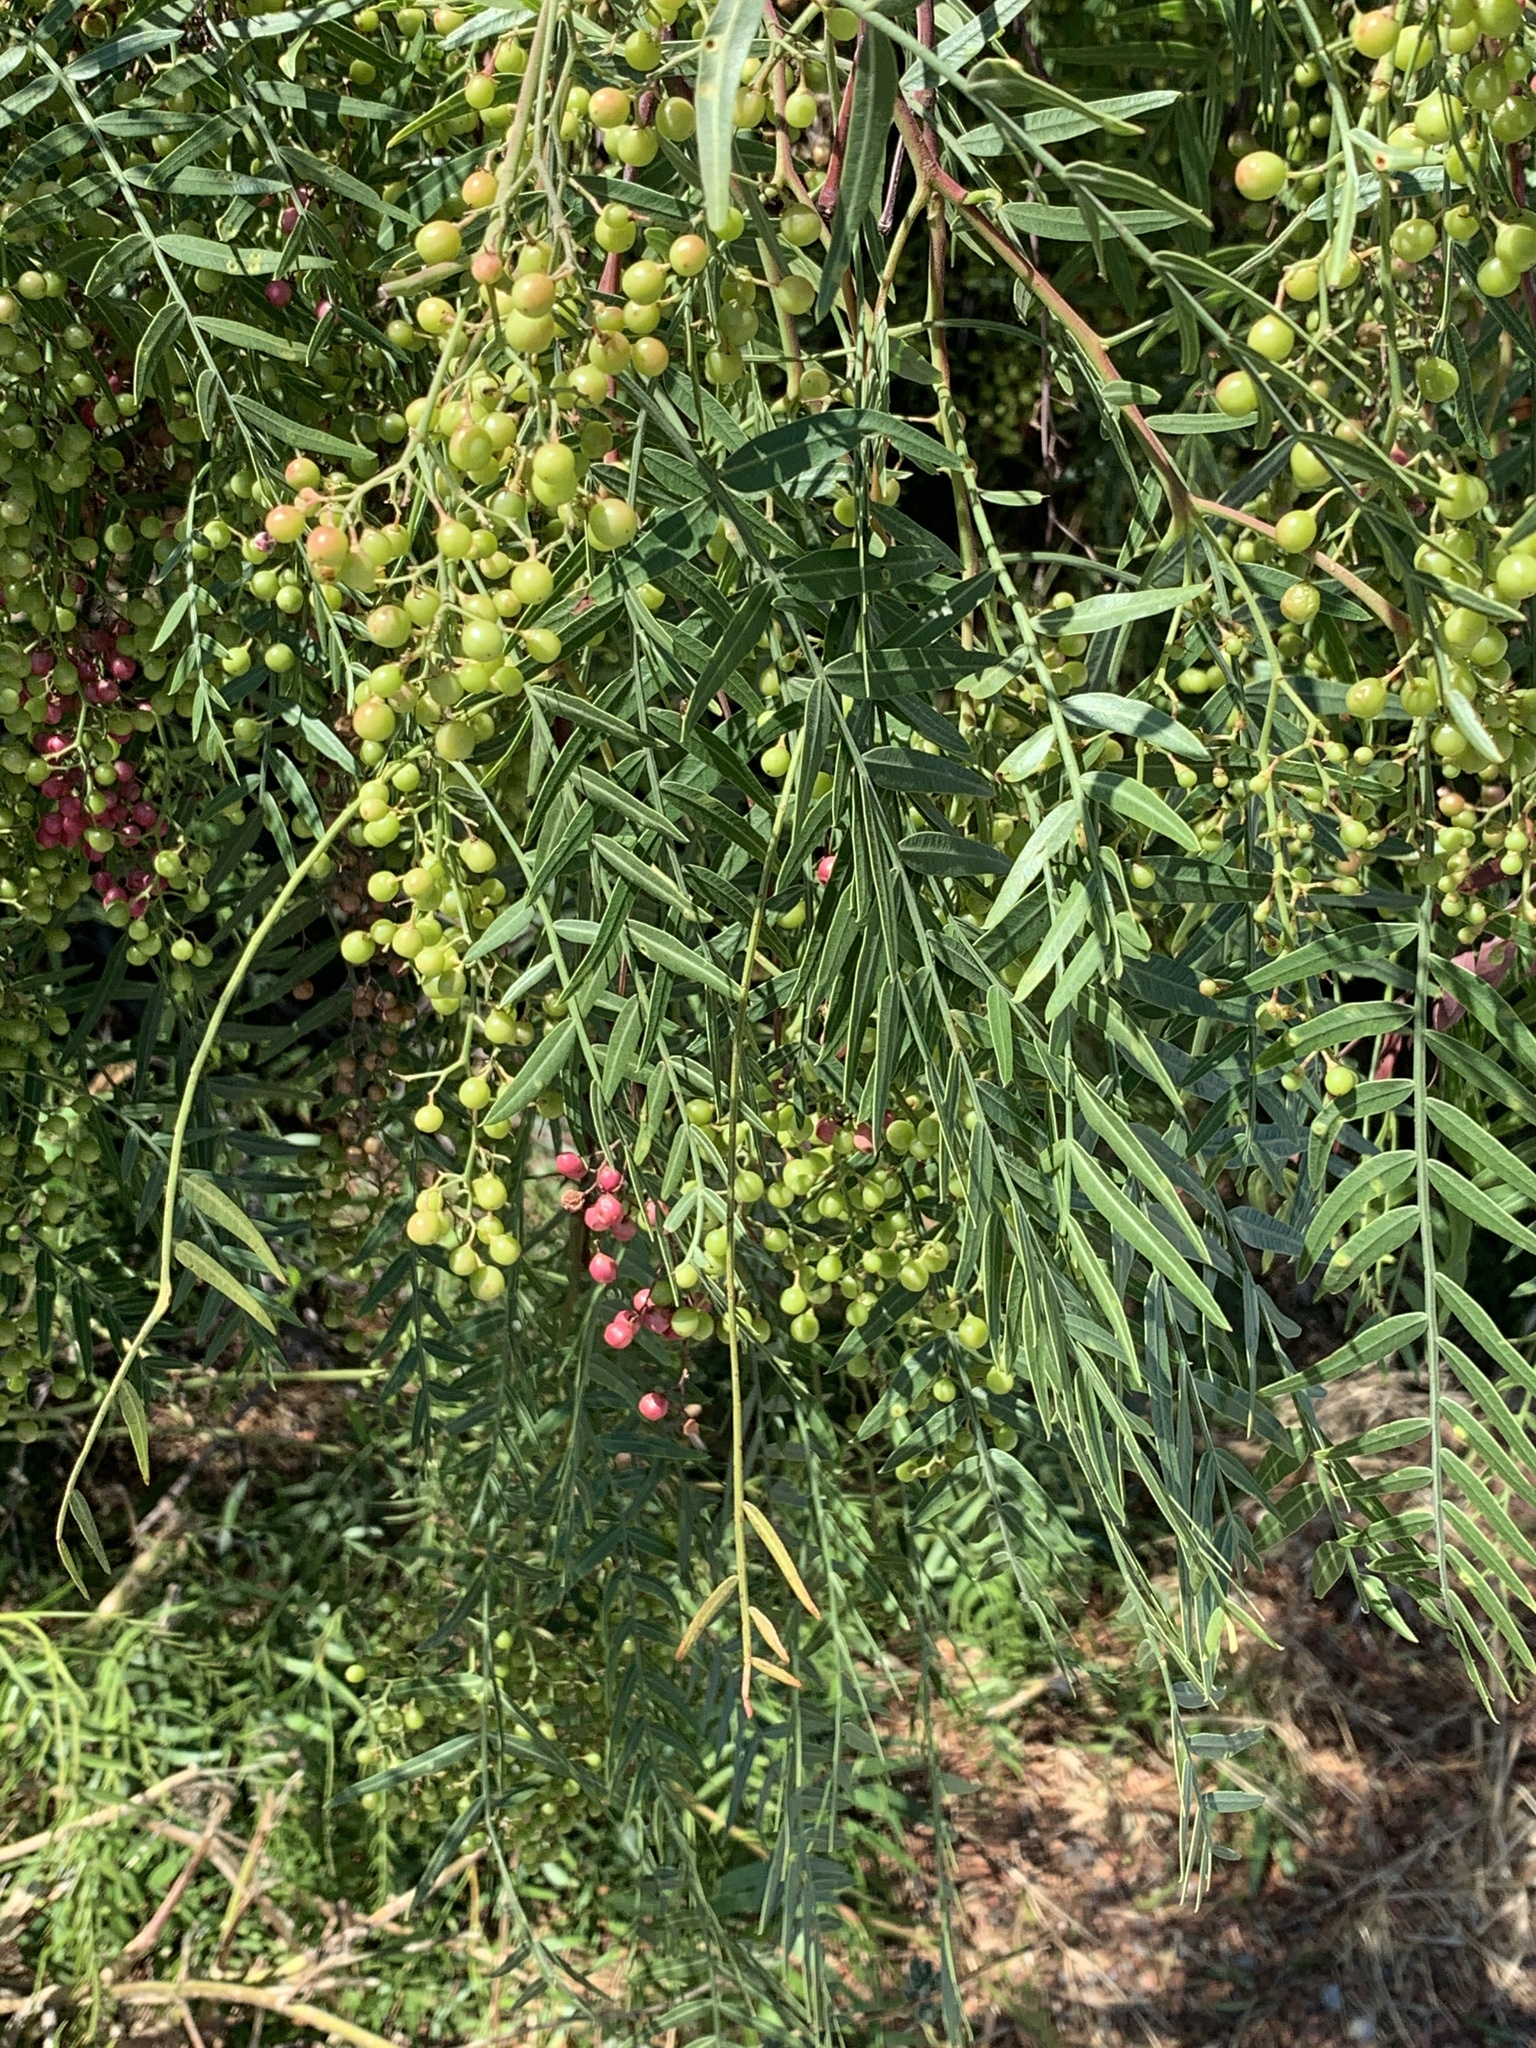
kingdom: Plantae
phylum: Tracheophyta
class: Magnoliopsida
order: Sapindales
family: Anacardiaceae
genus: Schinus
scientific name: Schinus molle
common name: Peruvian peppertree
